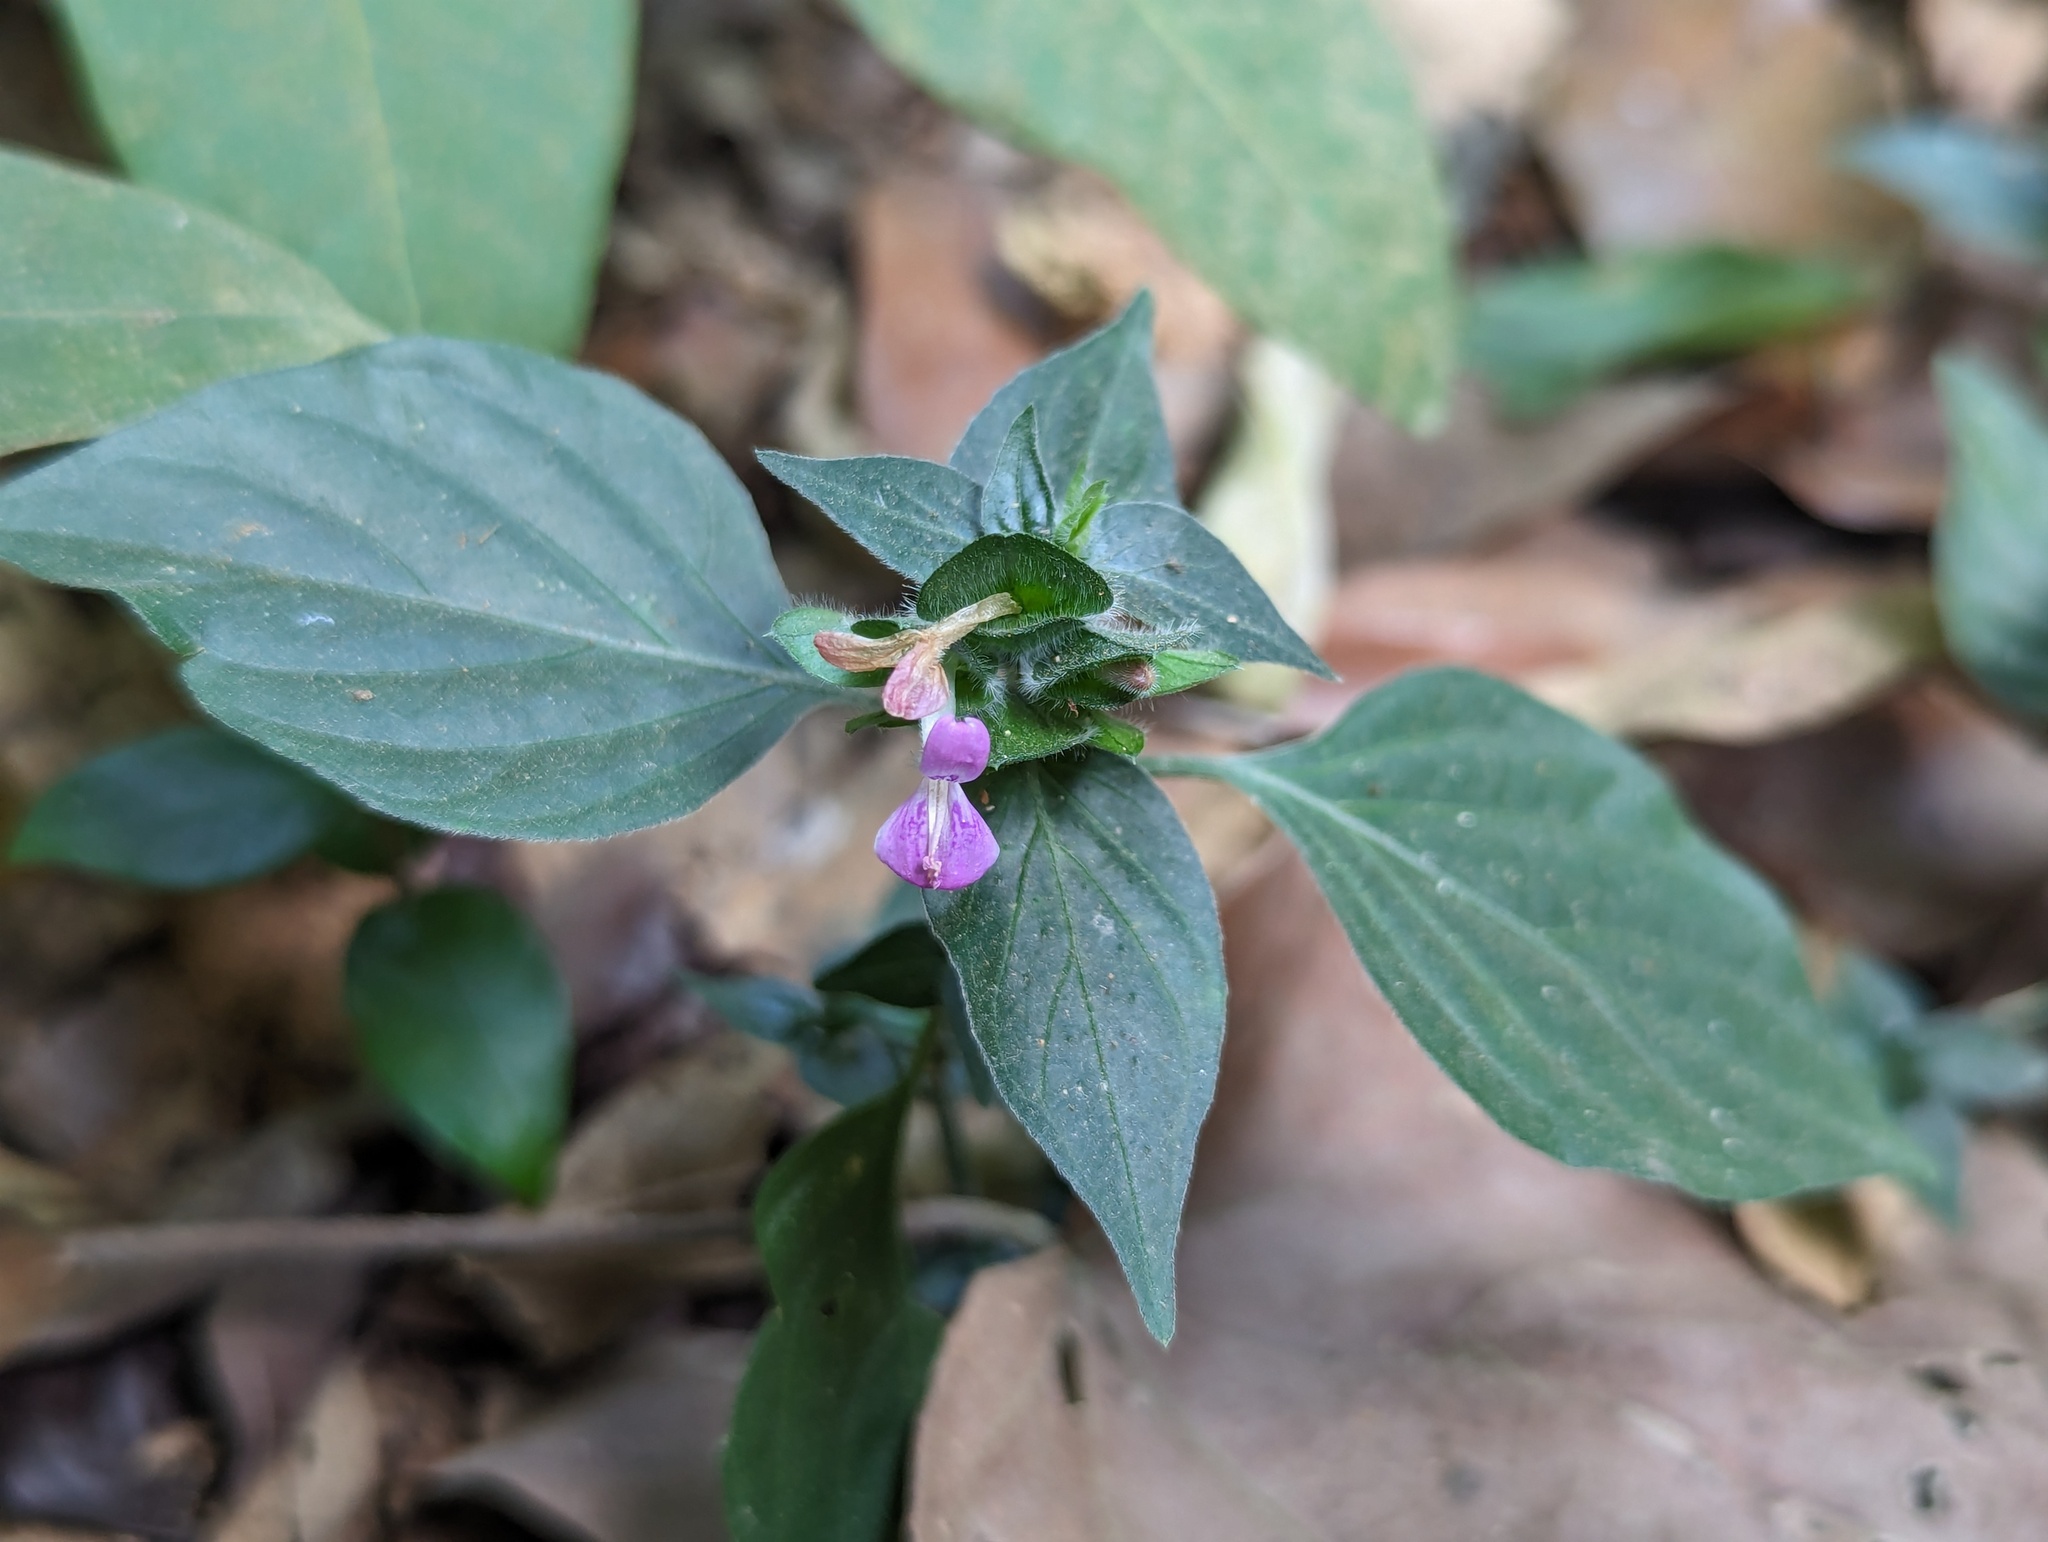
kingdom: Plantae
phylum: Tracheophyta
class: Magnoliopsida
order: Lamiales
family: Acanthaceae
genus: Dicliptera
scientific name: Dicliptera chinensis
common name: Chinese foldwing
